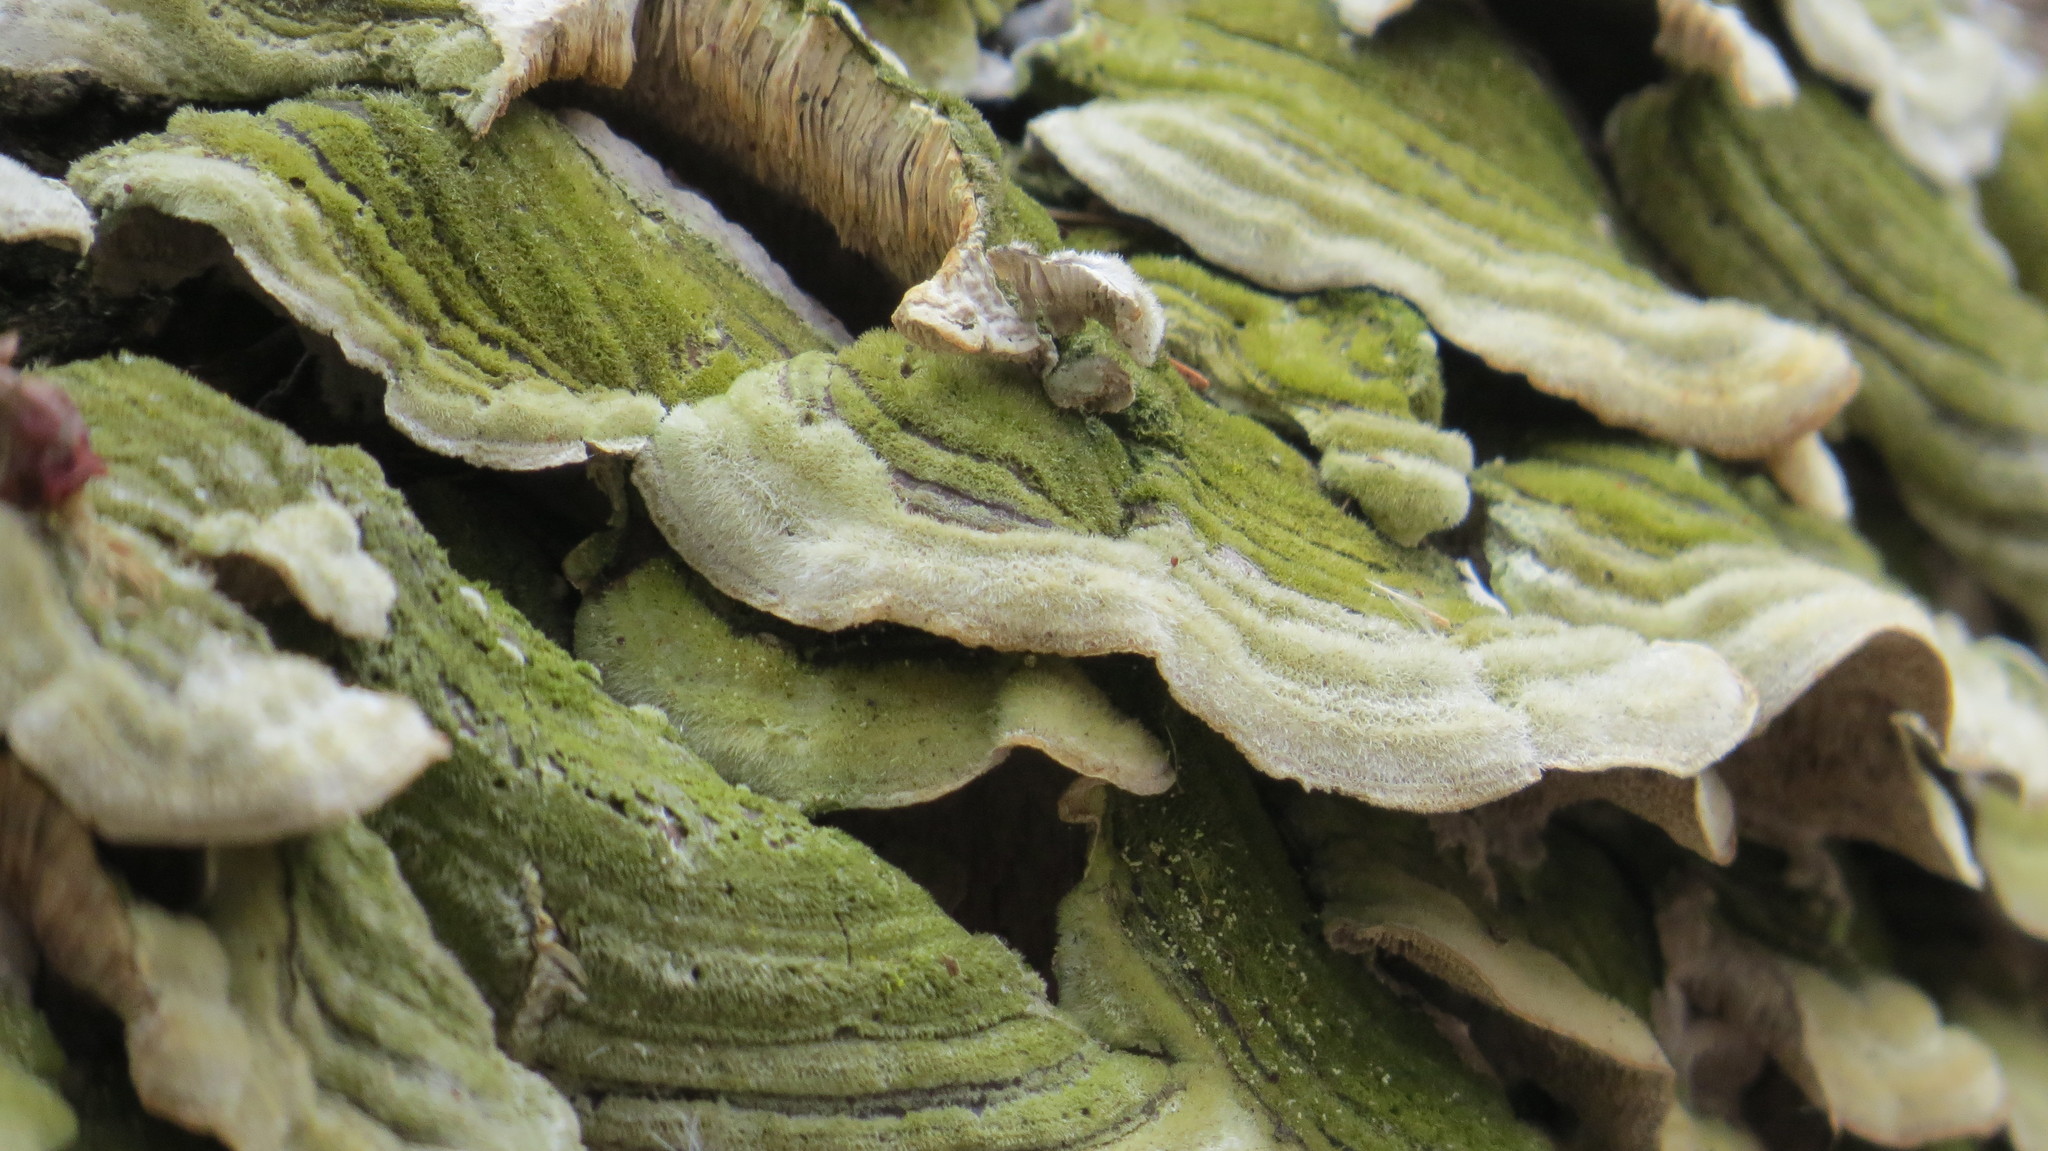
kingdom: Fungi
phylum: Basidiomycota
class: Agaricomycetes
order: Polyporales
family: Cerrenaceae
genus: Cerrena
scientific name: Cerrena unicolor
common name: Mossy maze polypore
